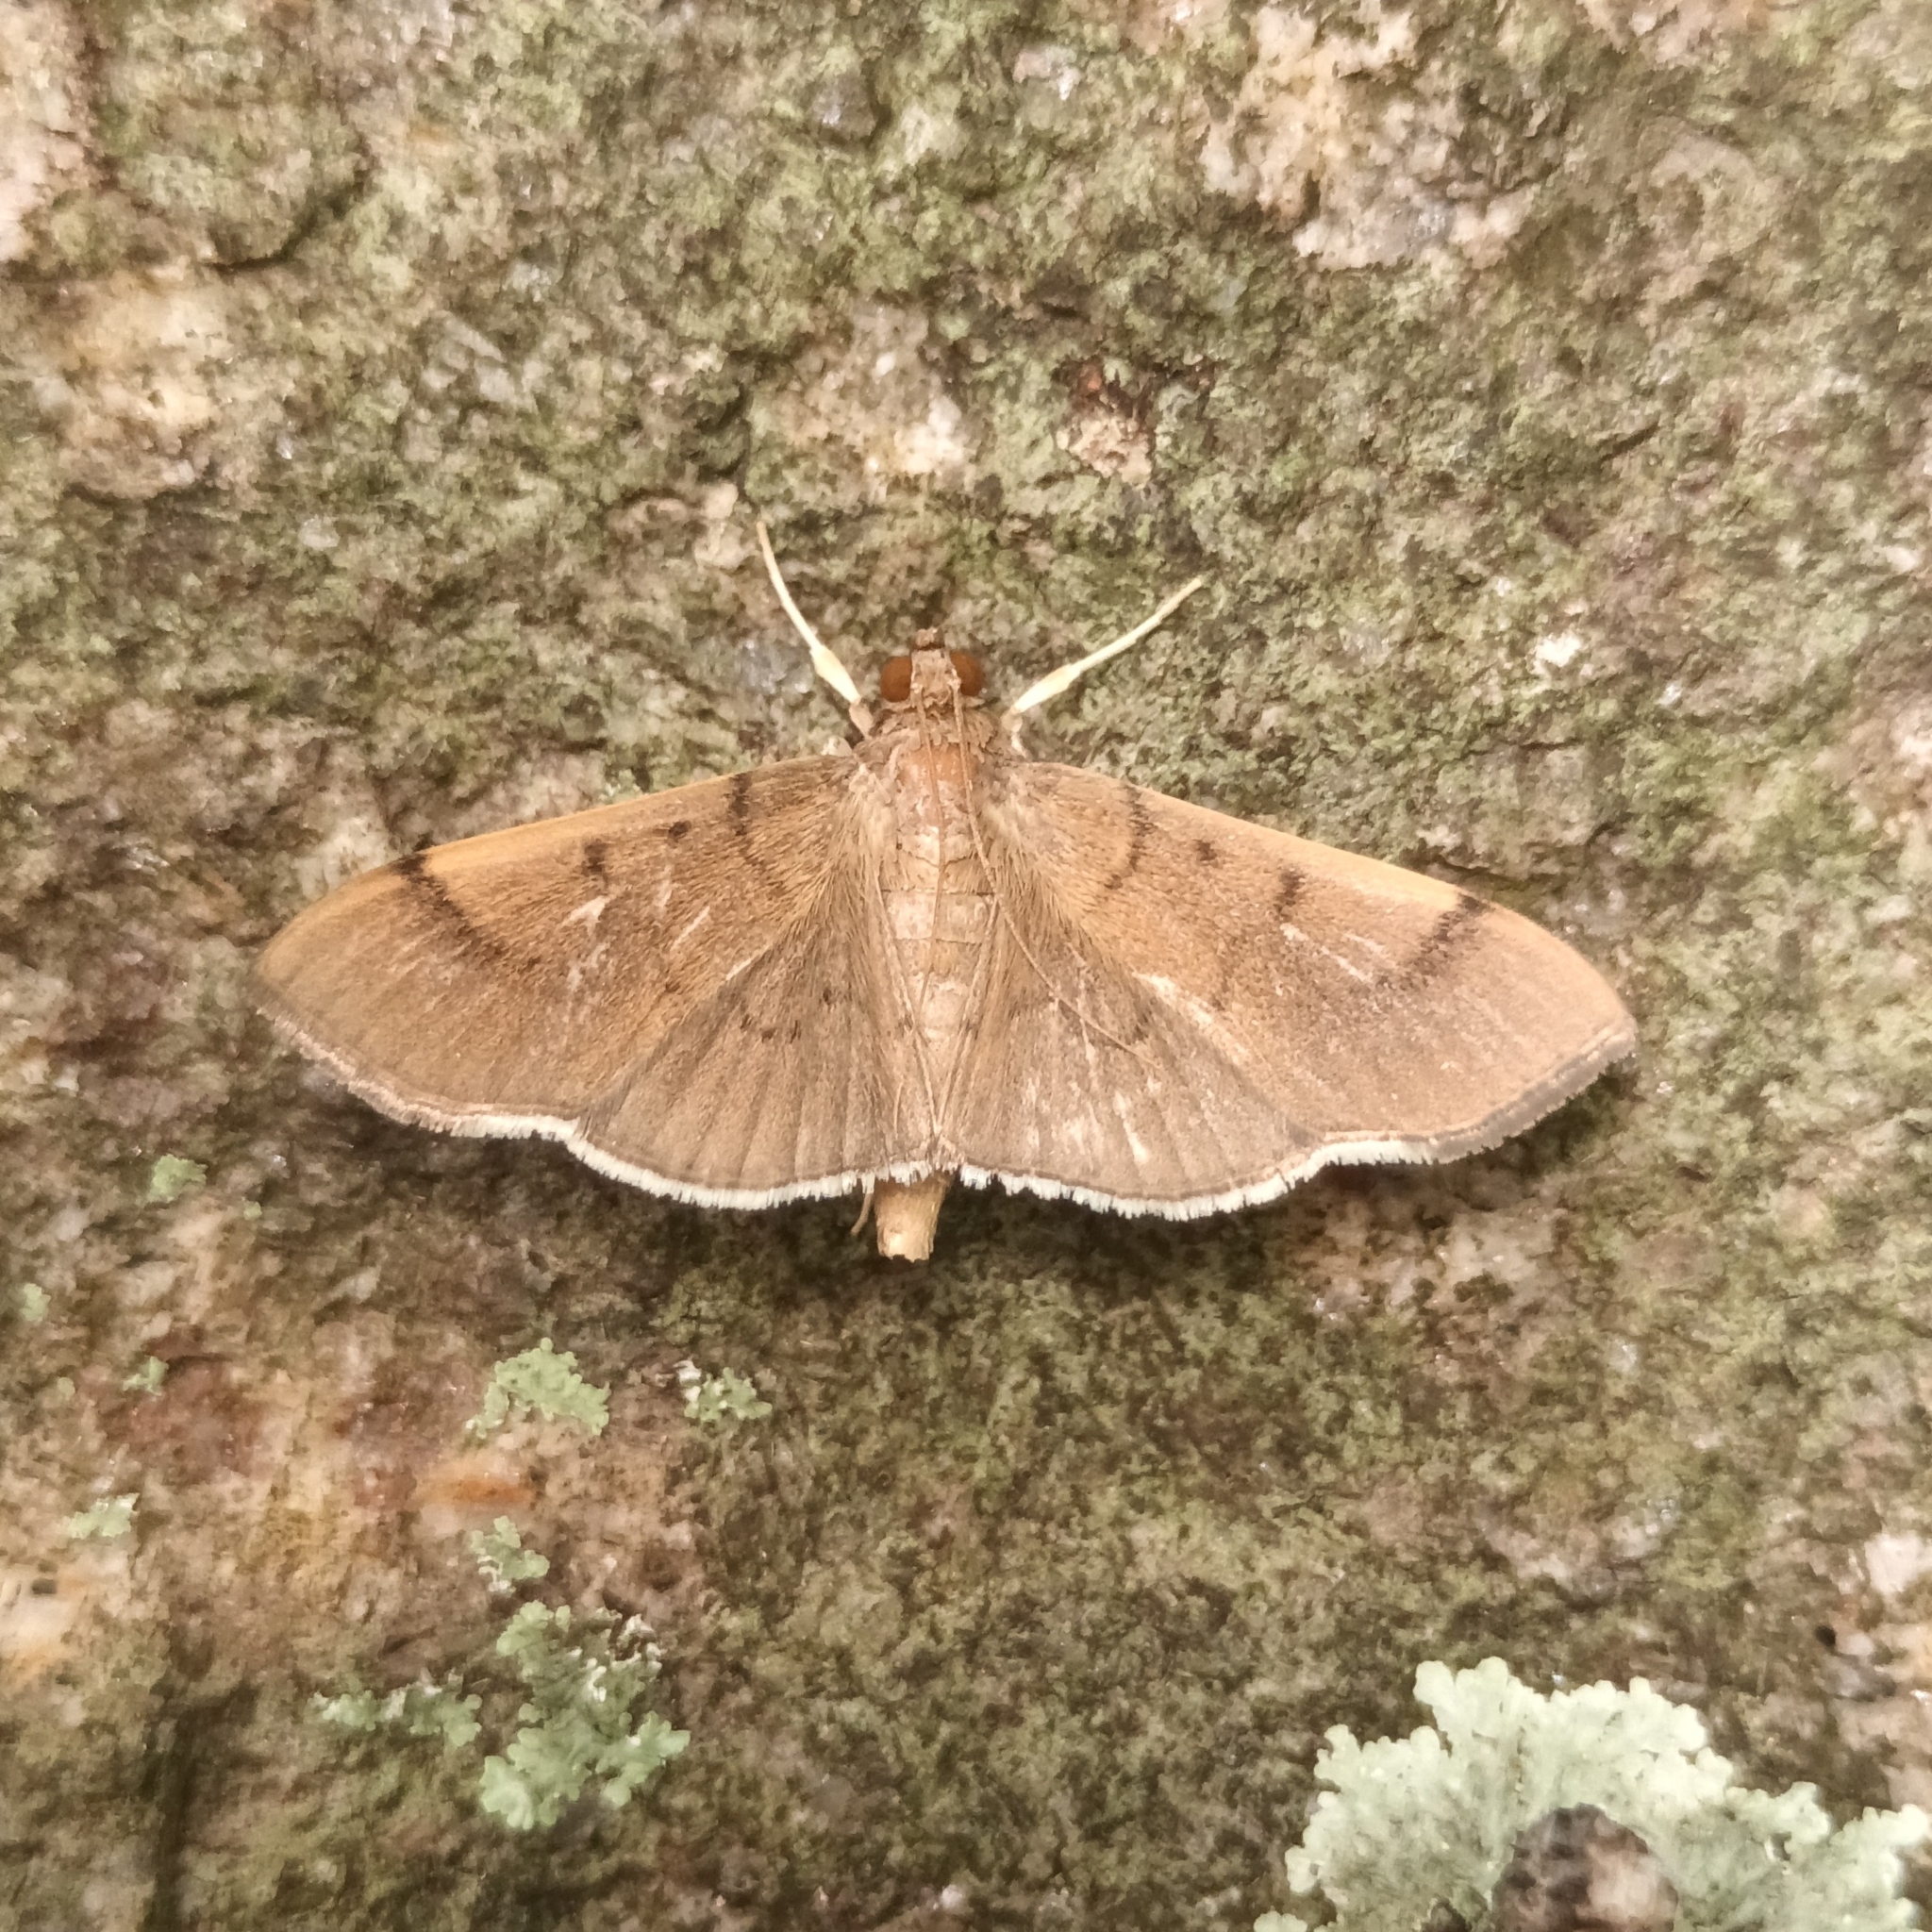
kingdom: Animalia
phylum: Arthropoda
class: Insecta
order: Lepidoptera
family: Crambidae
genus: Omiodes
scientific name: Omiodes
